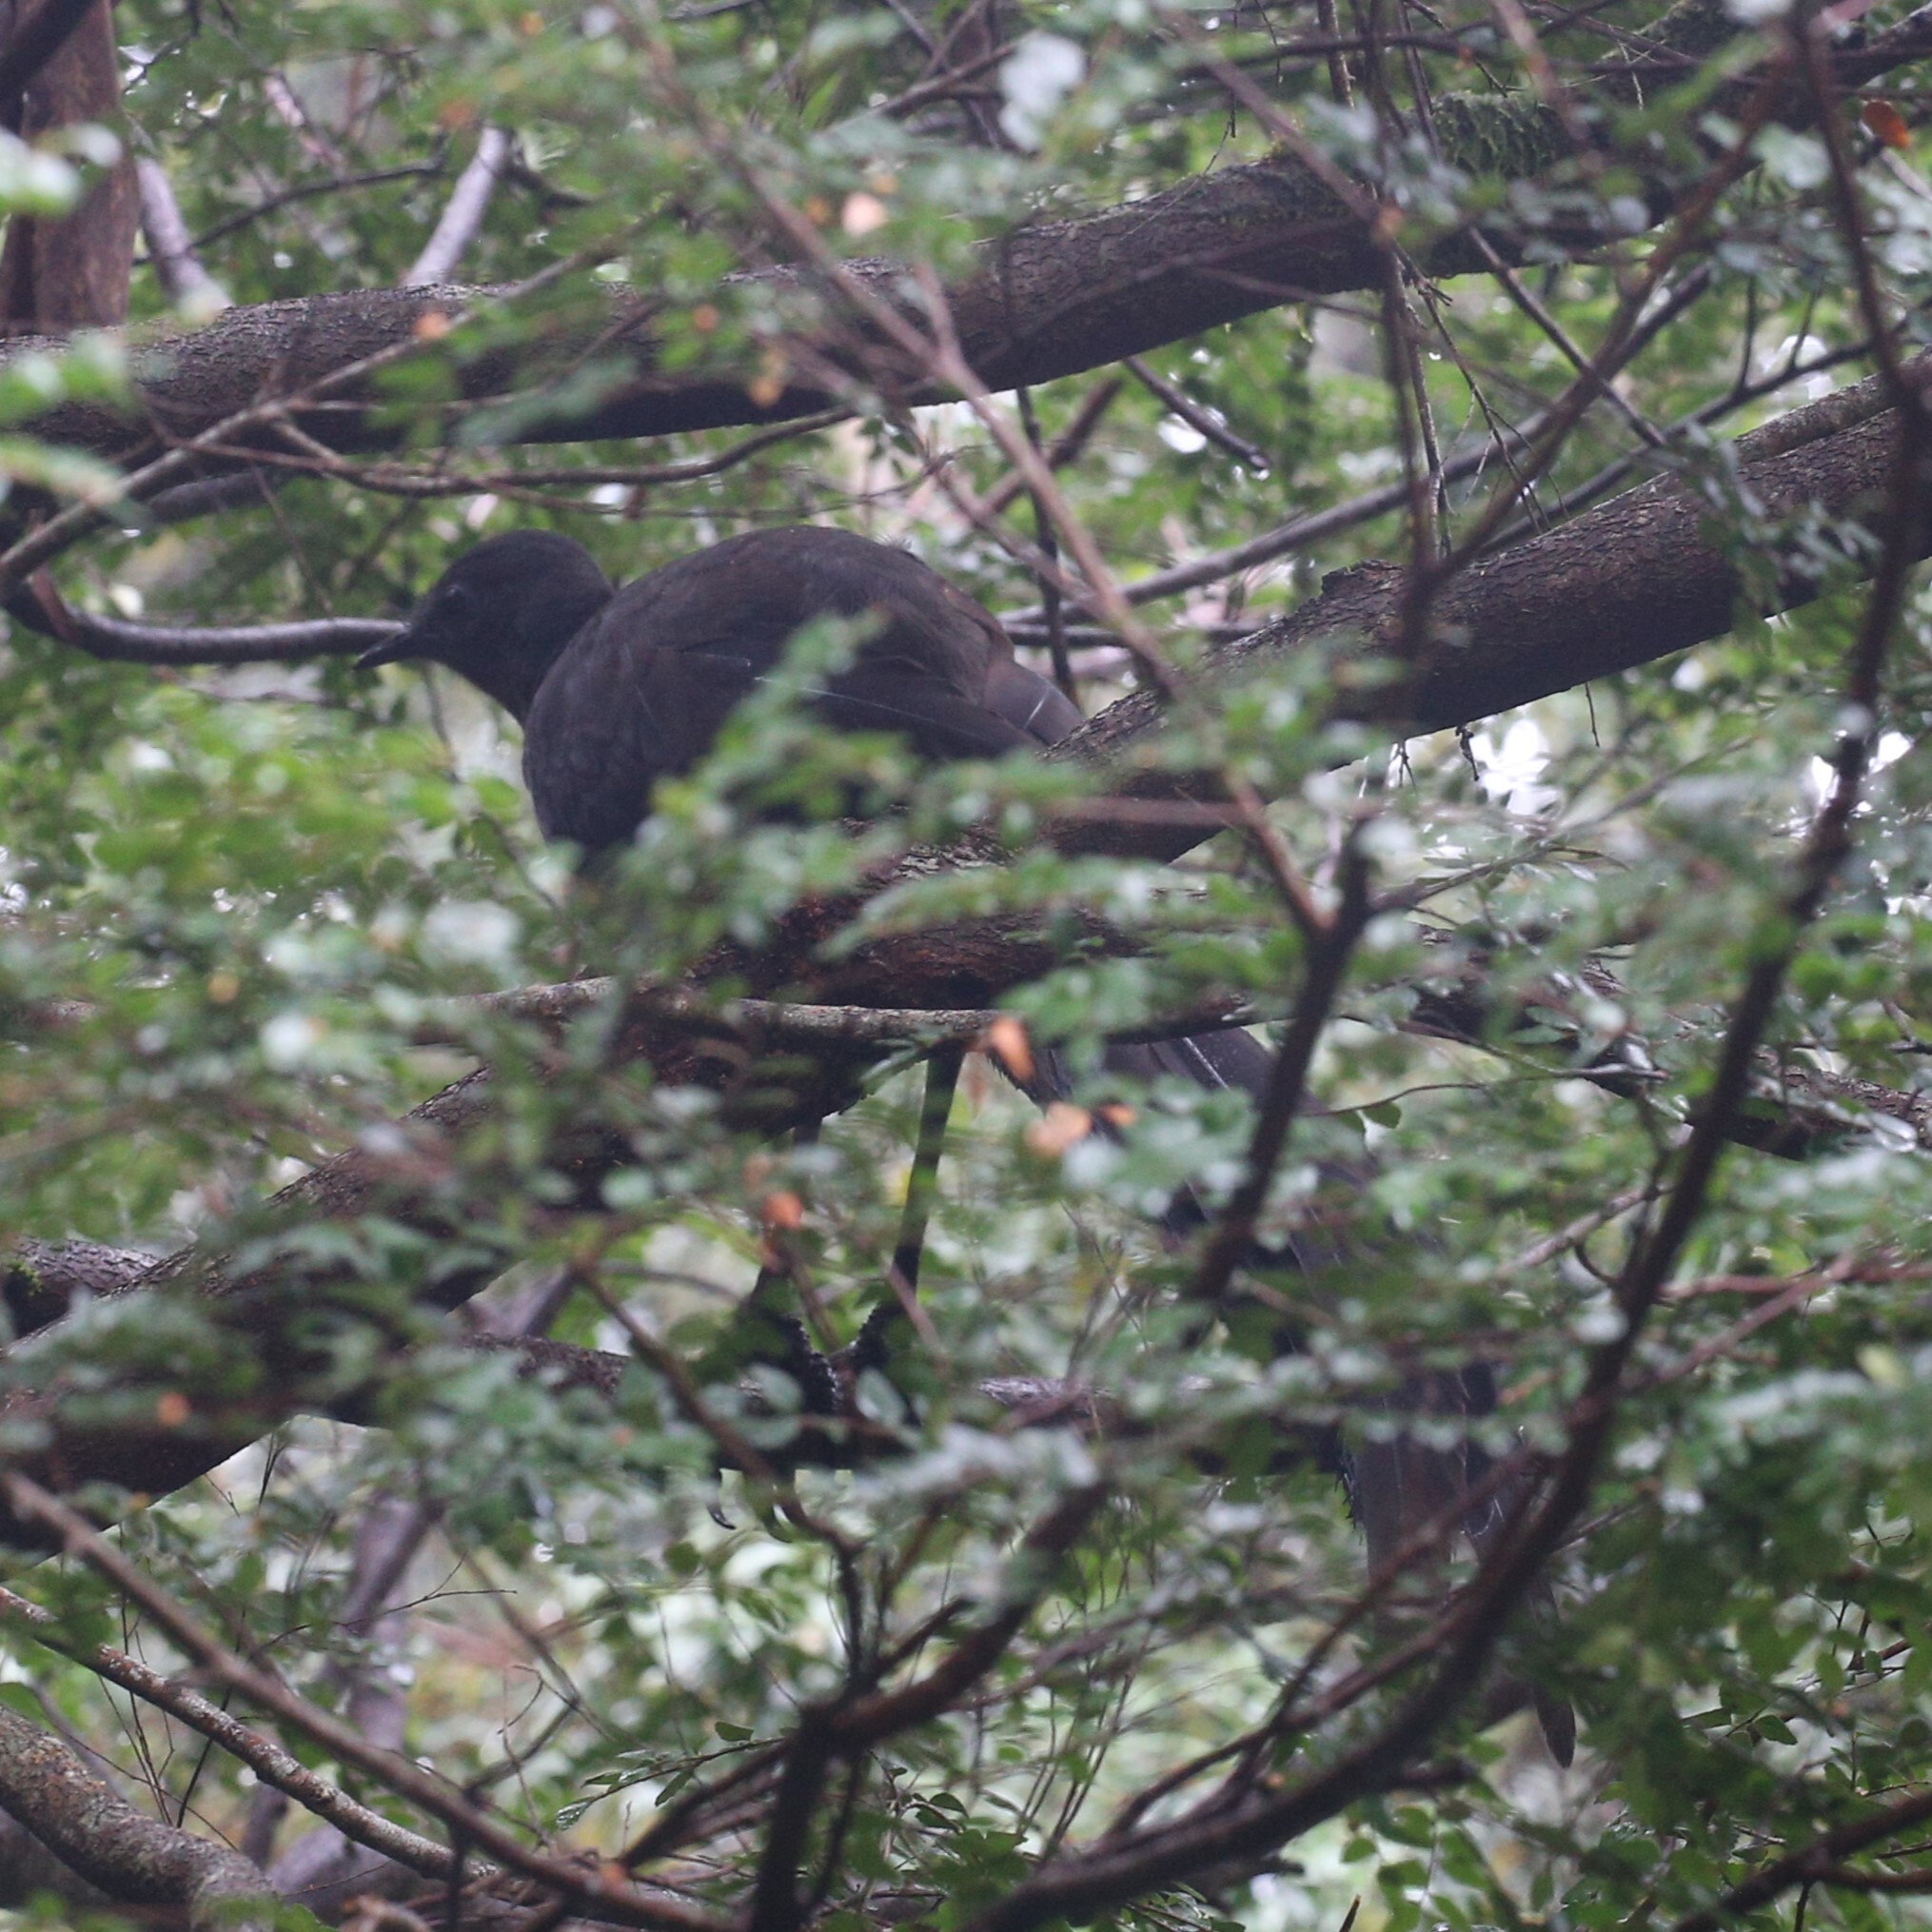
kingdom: Animalia
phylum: Chordata
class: Aves
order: Passeriformes
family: Menuridae
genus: Menura
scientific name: Menura novaehollandiae
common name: Superb lyrebird
